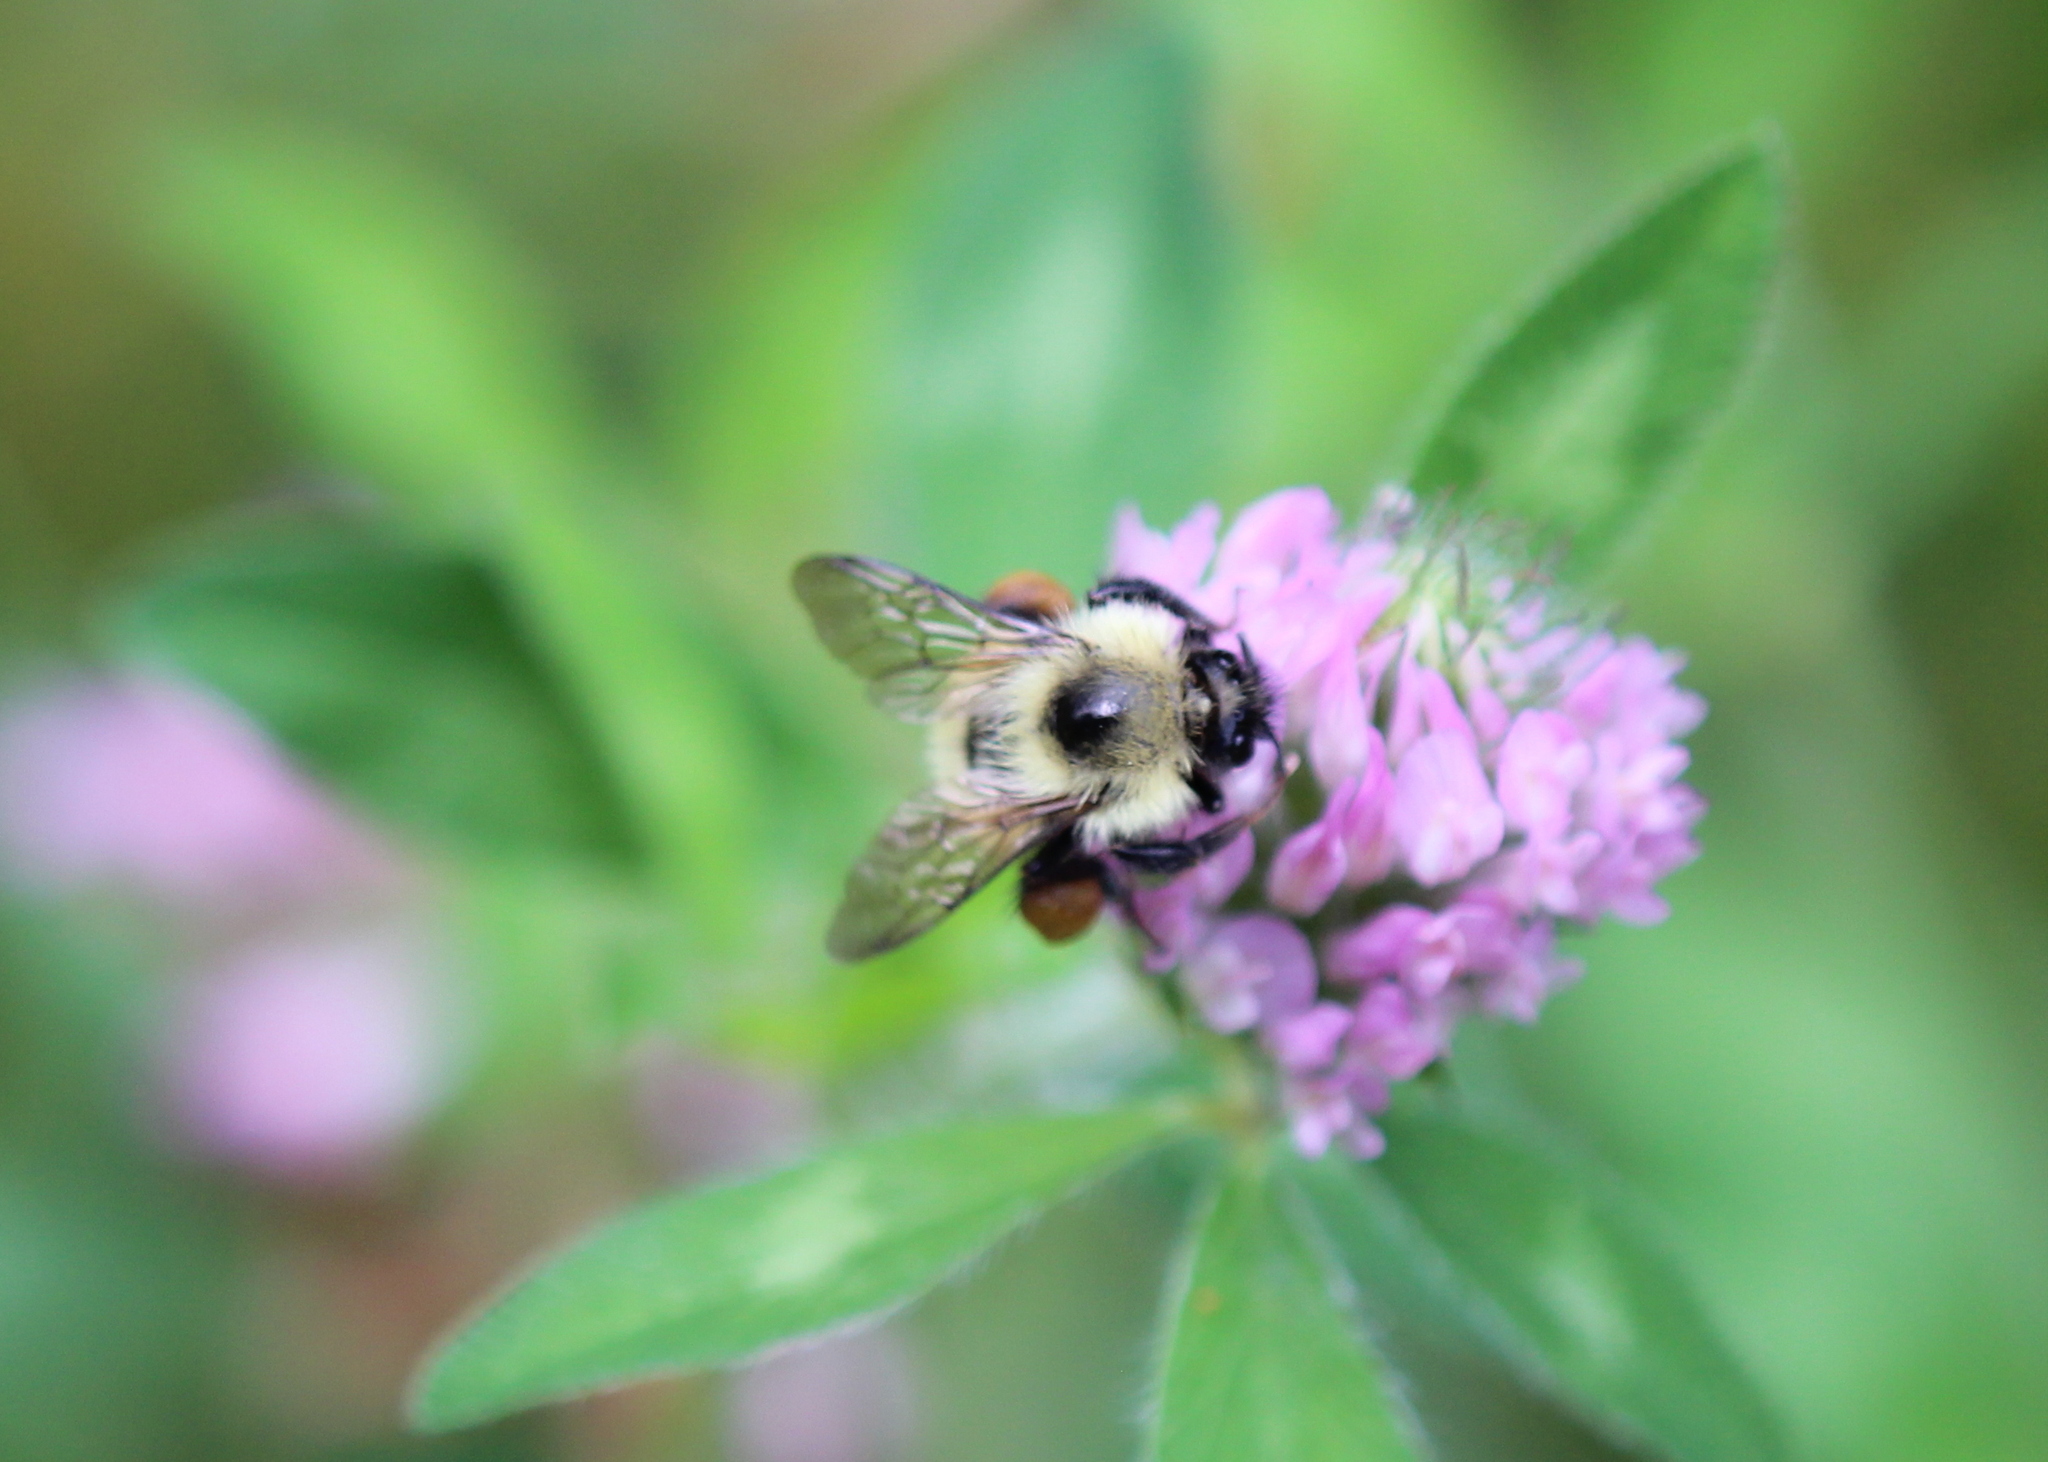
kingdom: Animalia
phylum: Arthropoda
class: Insecta
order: Hymenoptera
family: Apidae
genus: Pyrobombus
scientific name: Pyrobombus
